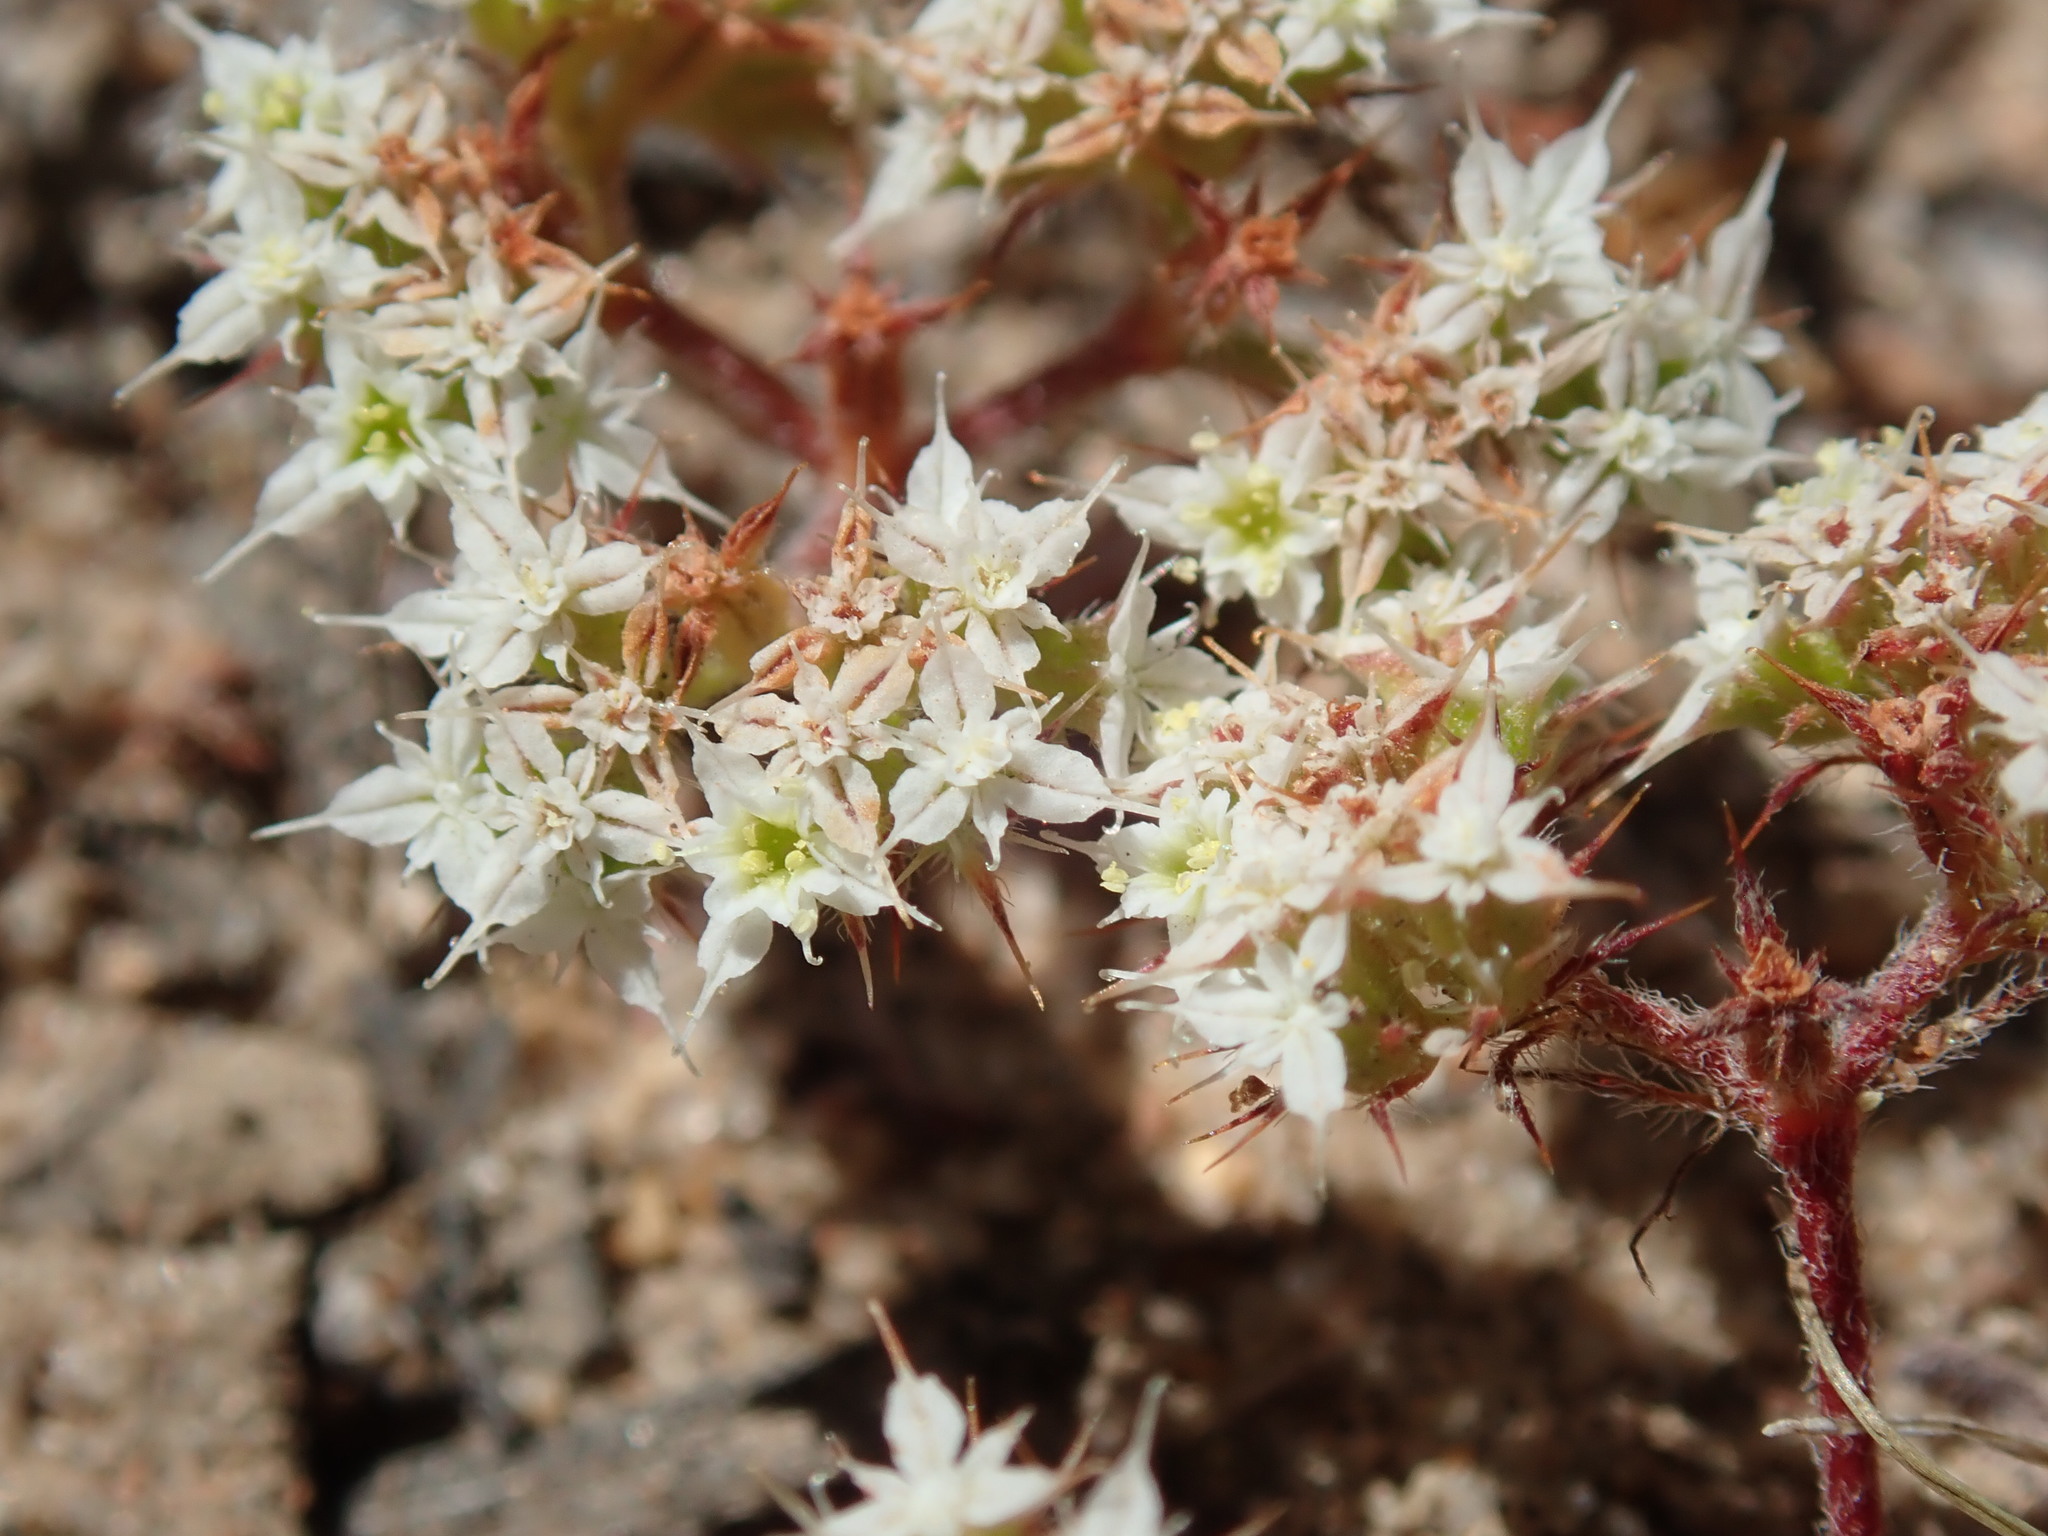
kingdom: Plantae
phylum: Tracheophyta
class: Magnoliopsida
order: Caryophyllales
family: Polygonaceae
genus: Chorizanthe
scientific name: Chorizanthe diffusa
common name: Diffuse spineflower
